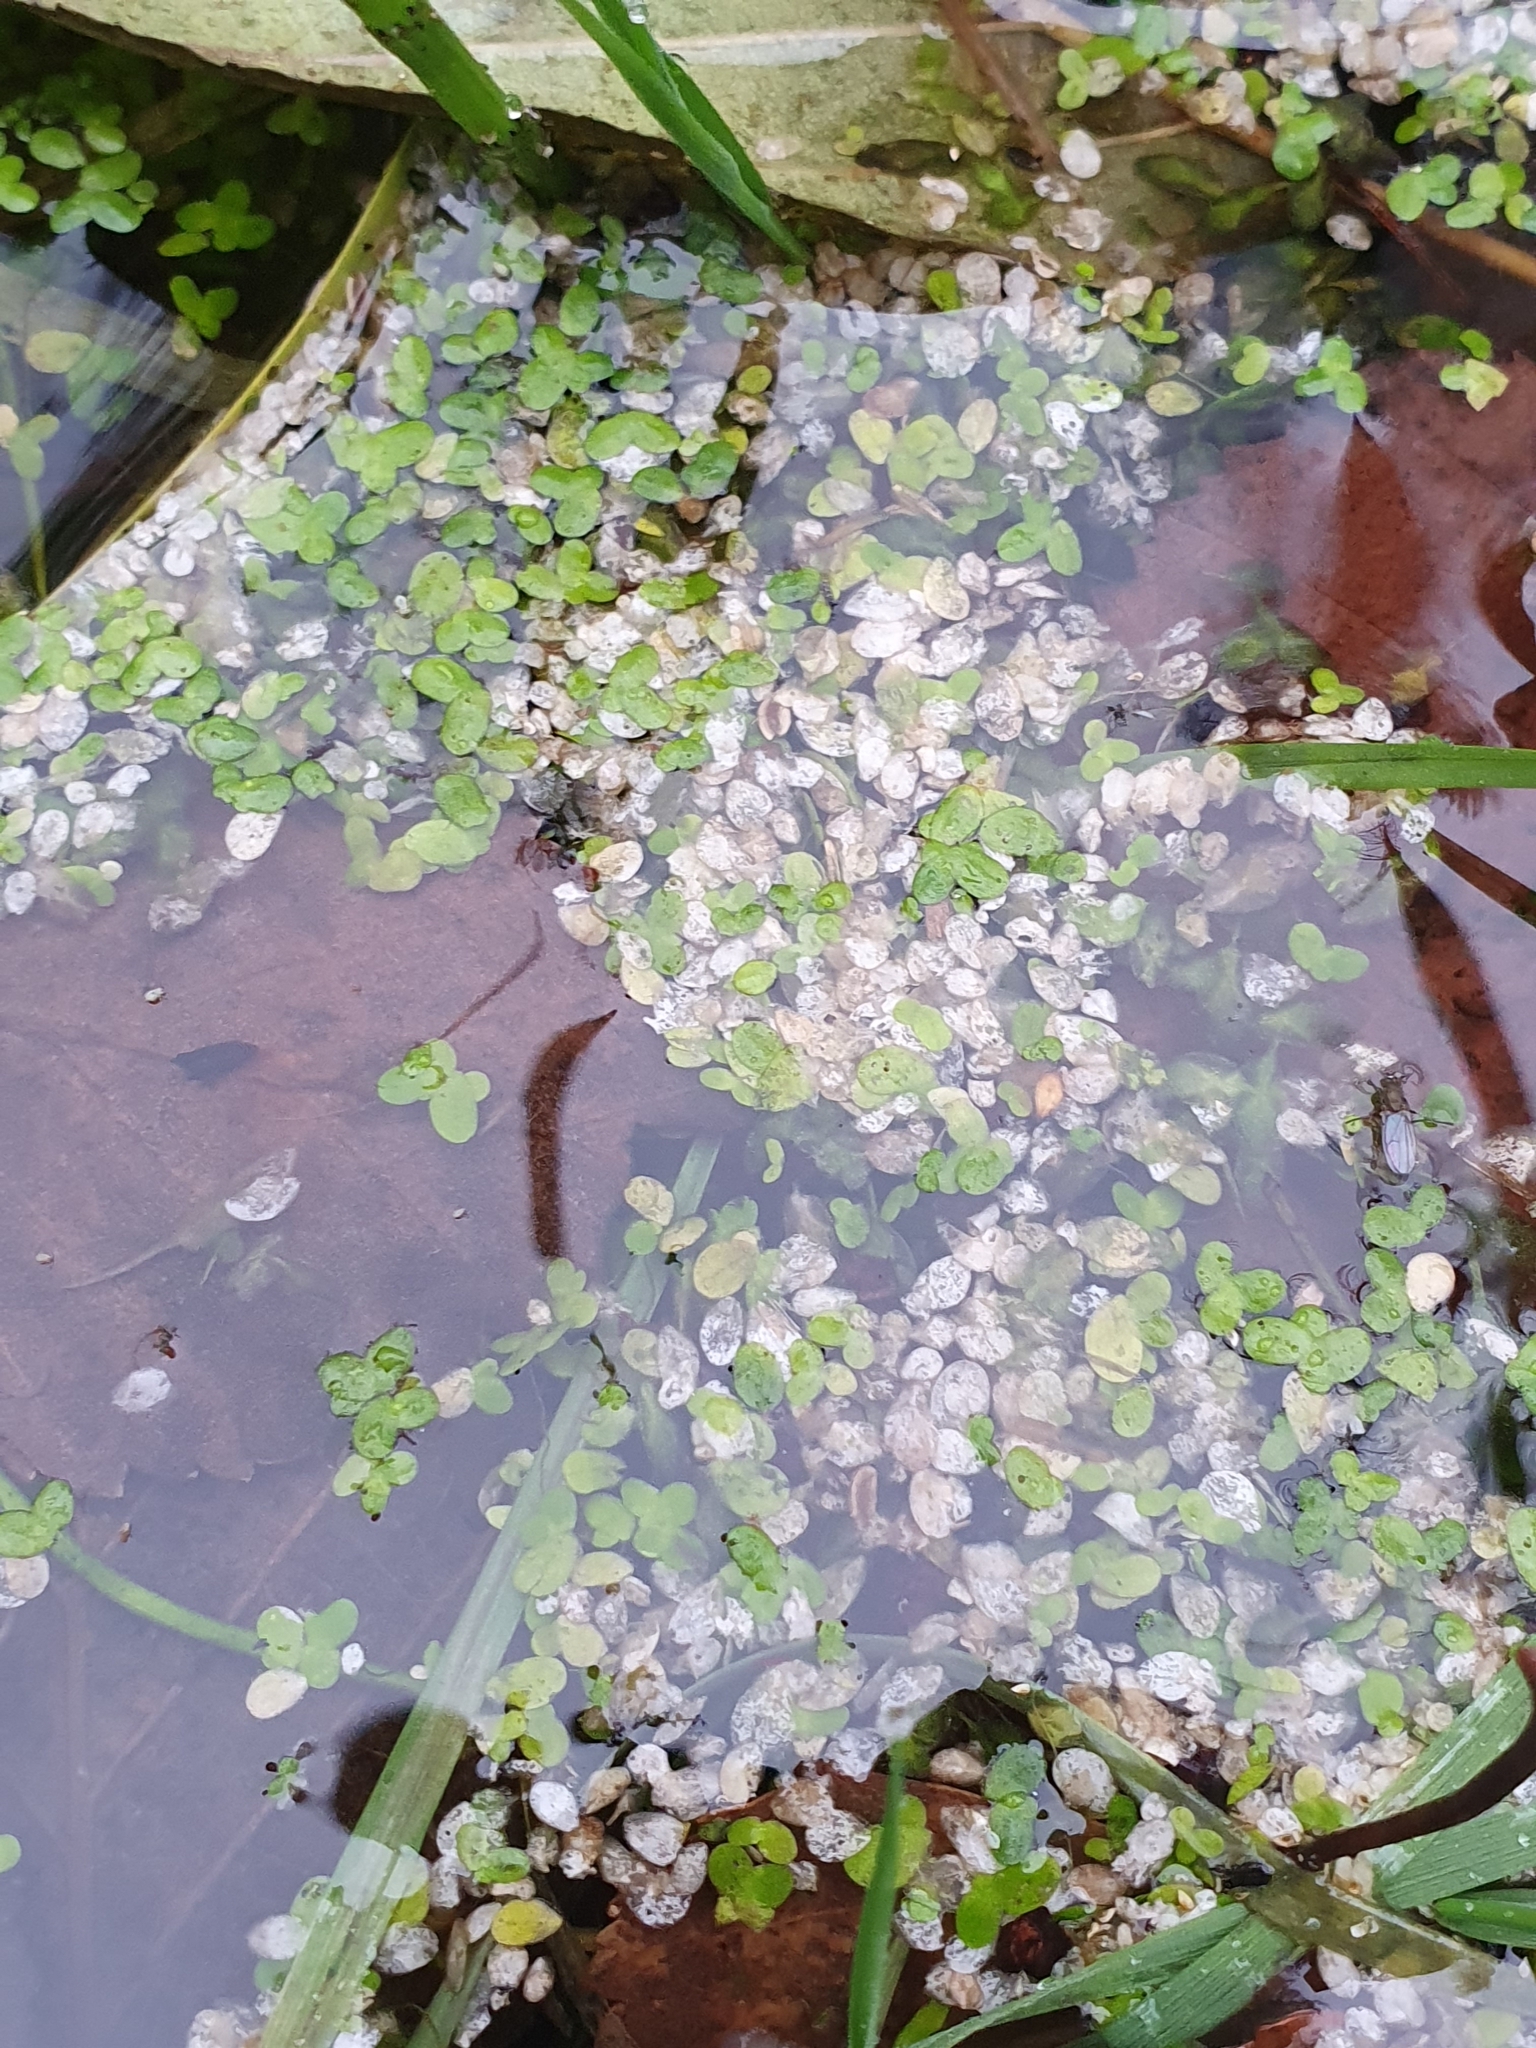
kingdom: Plantae
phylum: Tracheophyta
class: Liliopsida
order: Alismatales
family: Araceae
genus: Lemna
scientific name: Lemna minor
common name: Common duckweed
